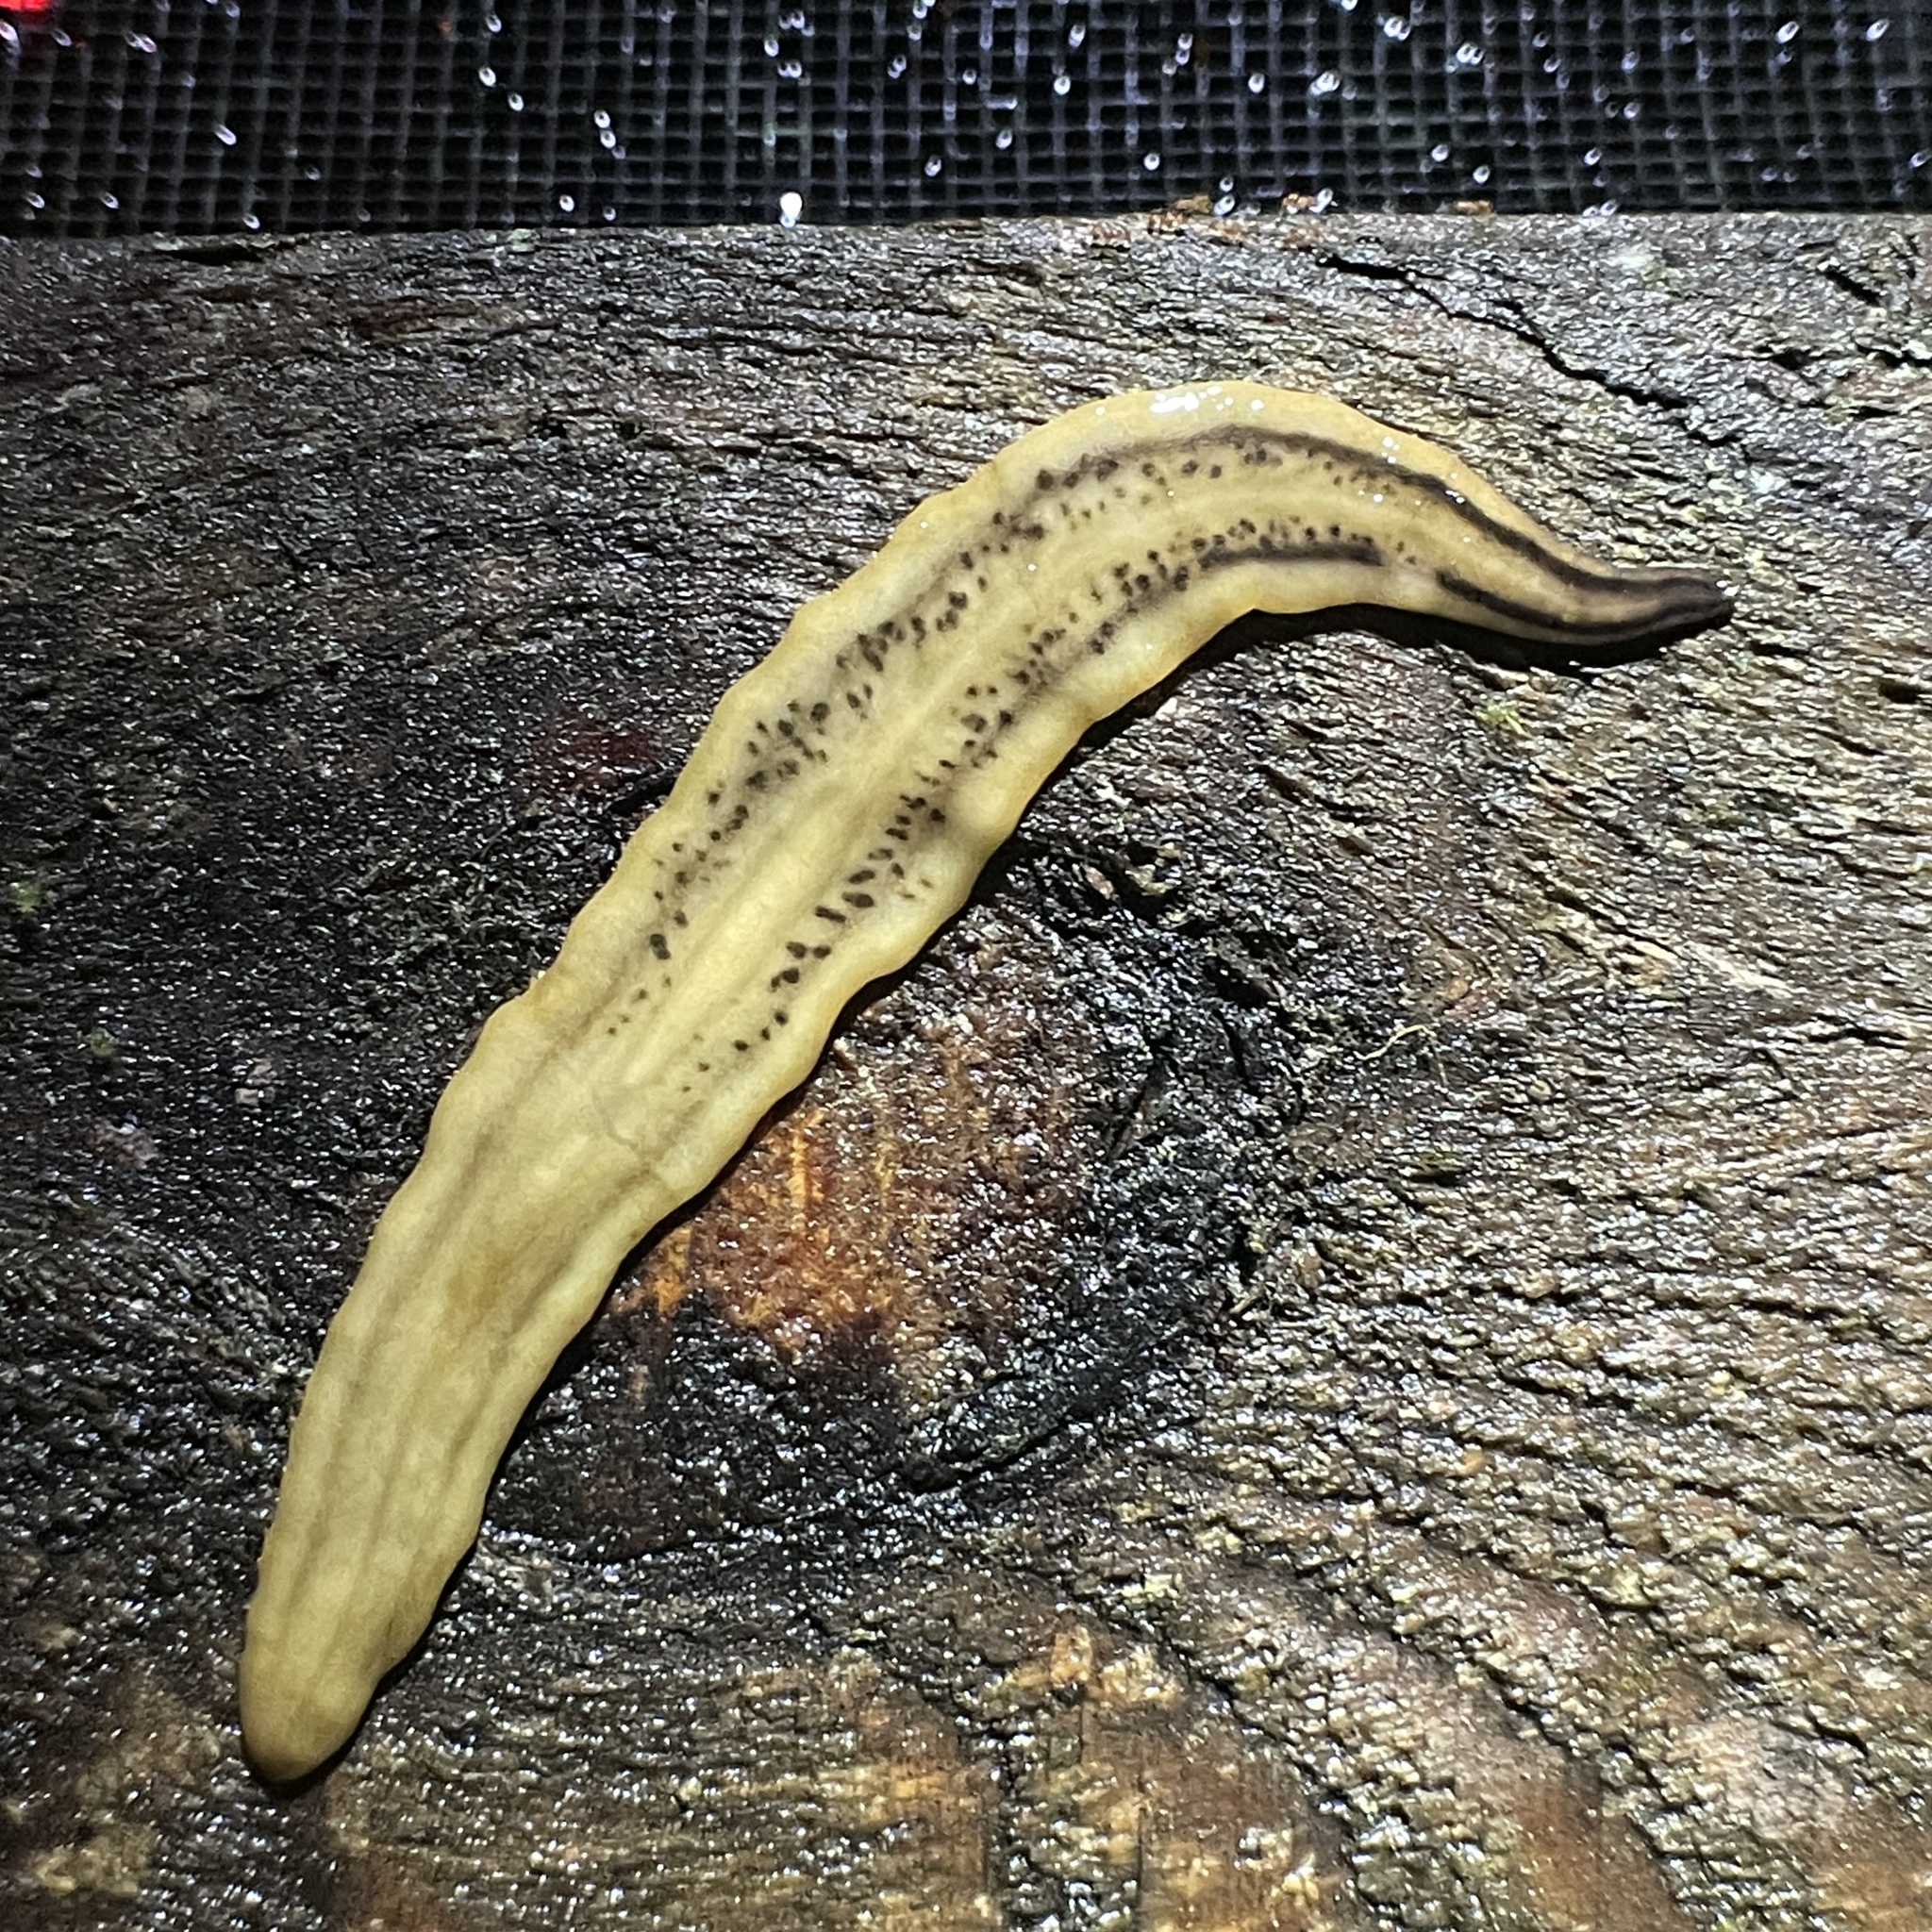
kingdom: Animalia
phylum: Platyhelminthes
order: Tricladida
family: Geoplanidae
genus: Amaga
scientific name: Amaga expatria
